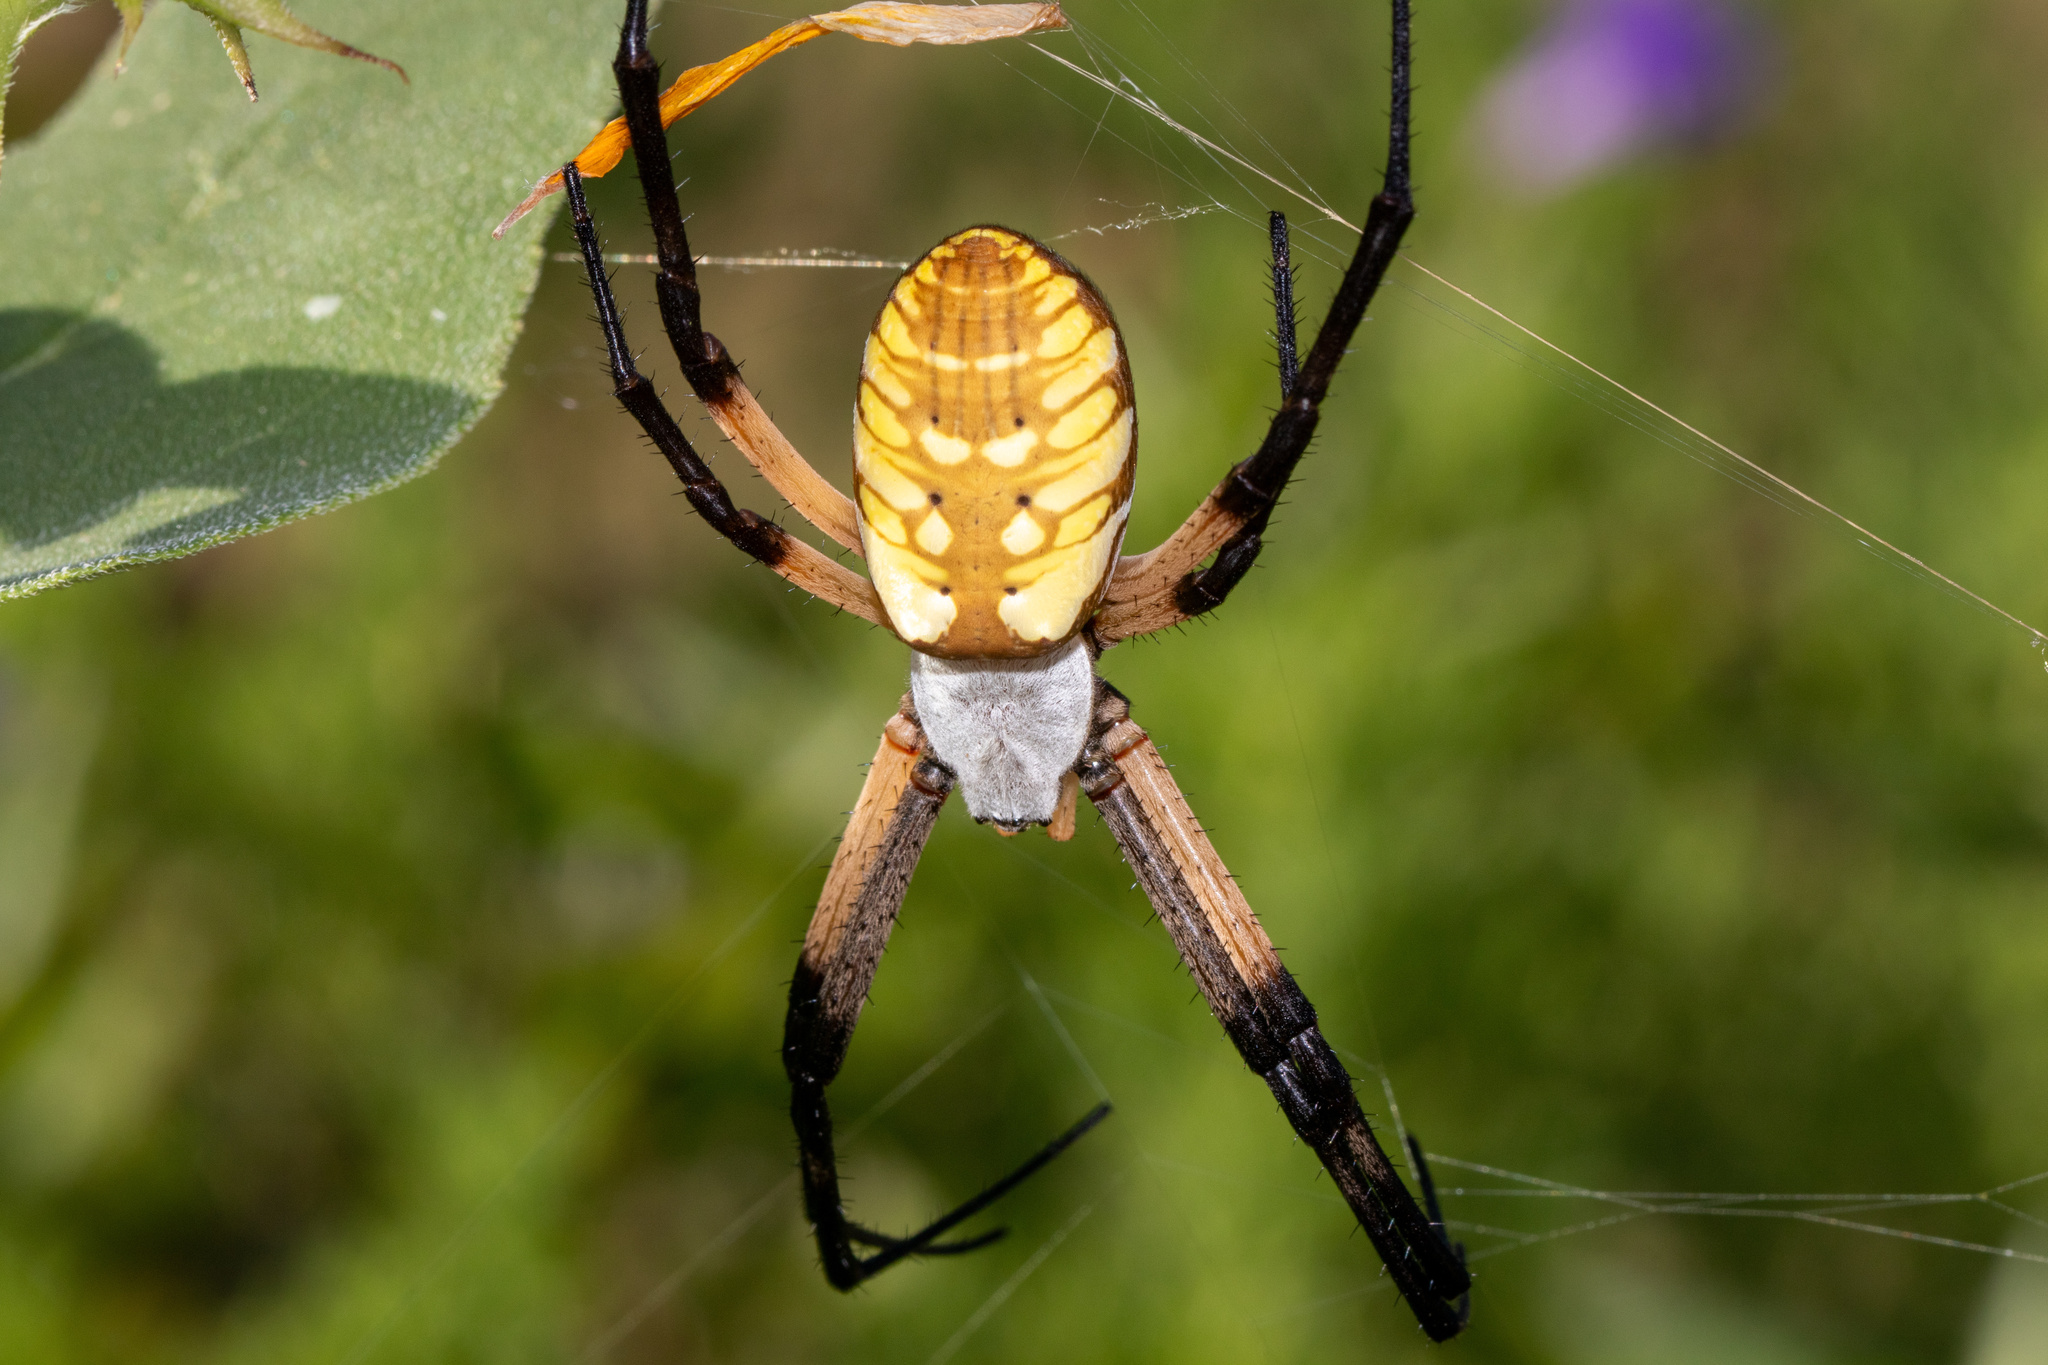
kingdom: Animalia
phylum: Arthropoda
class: Arachnida
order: Araneae
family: Araneidae
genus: Argiope
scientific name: Argiope aurantia
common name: Orb weavers
